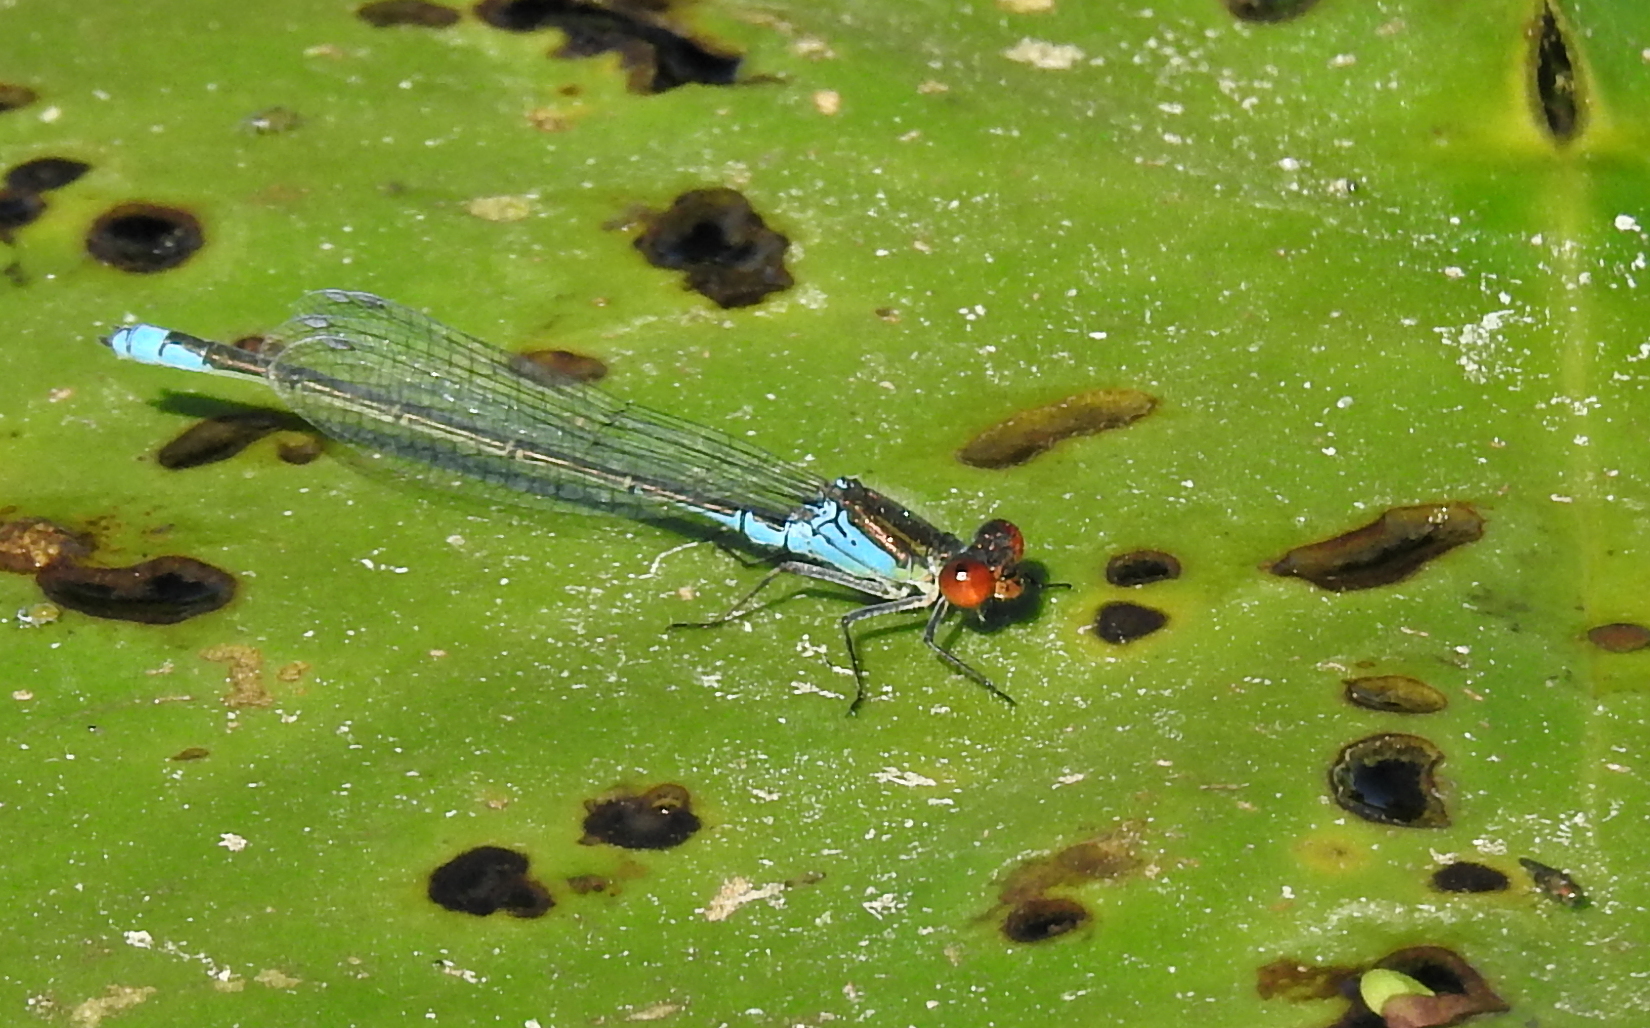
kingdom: Animalia
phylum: Arthropoda
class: Insecta
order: Odonata
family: Coenagrionidae
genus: Erythromma
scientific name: Erythromma viridulum
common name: Small red-eyed damselfly
